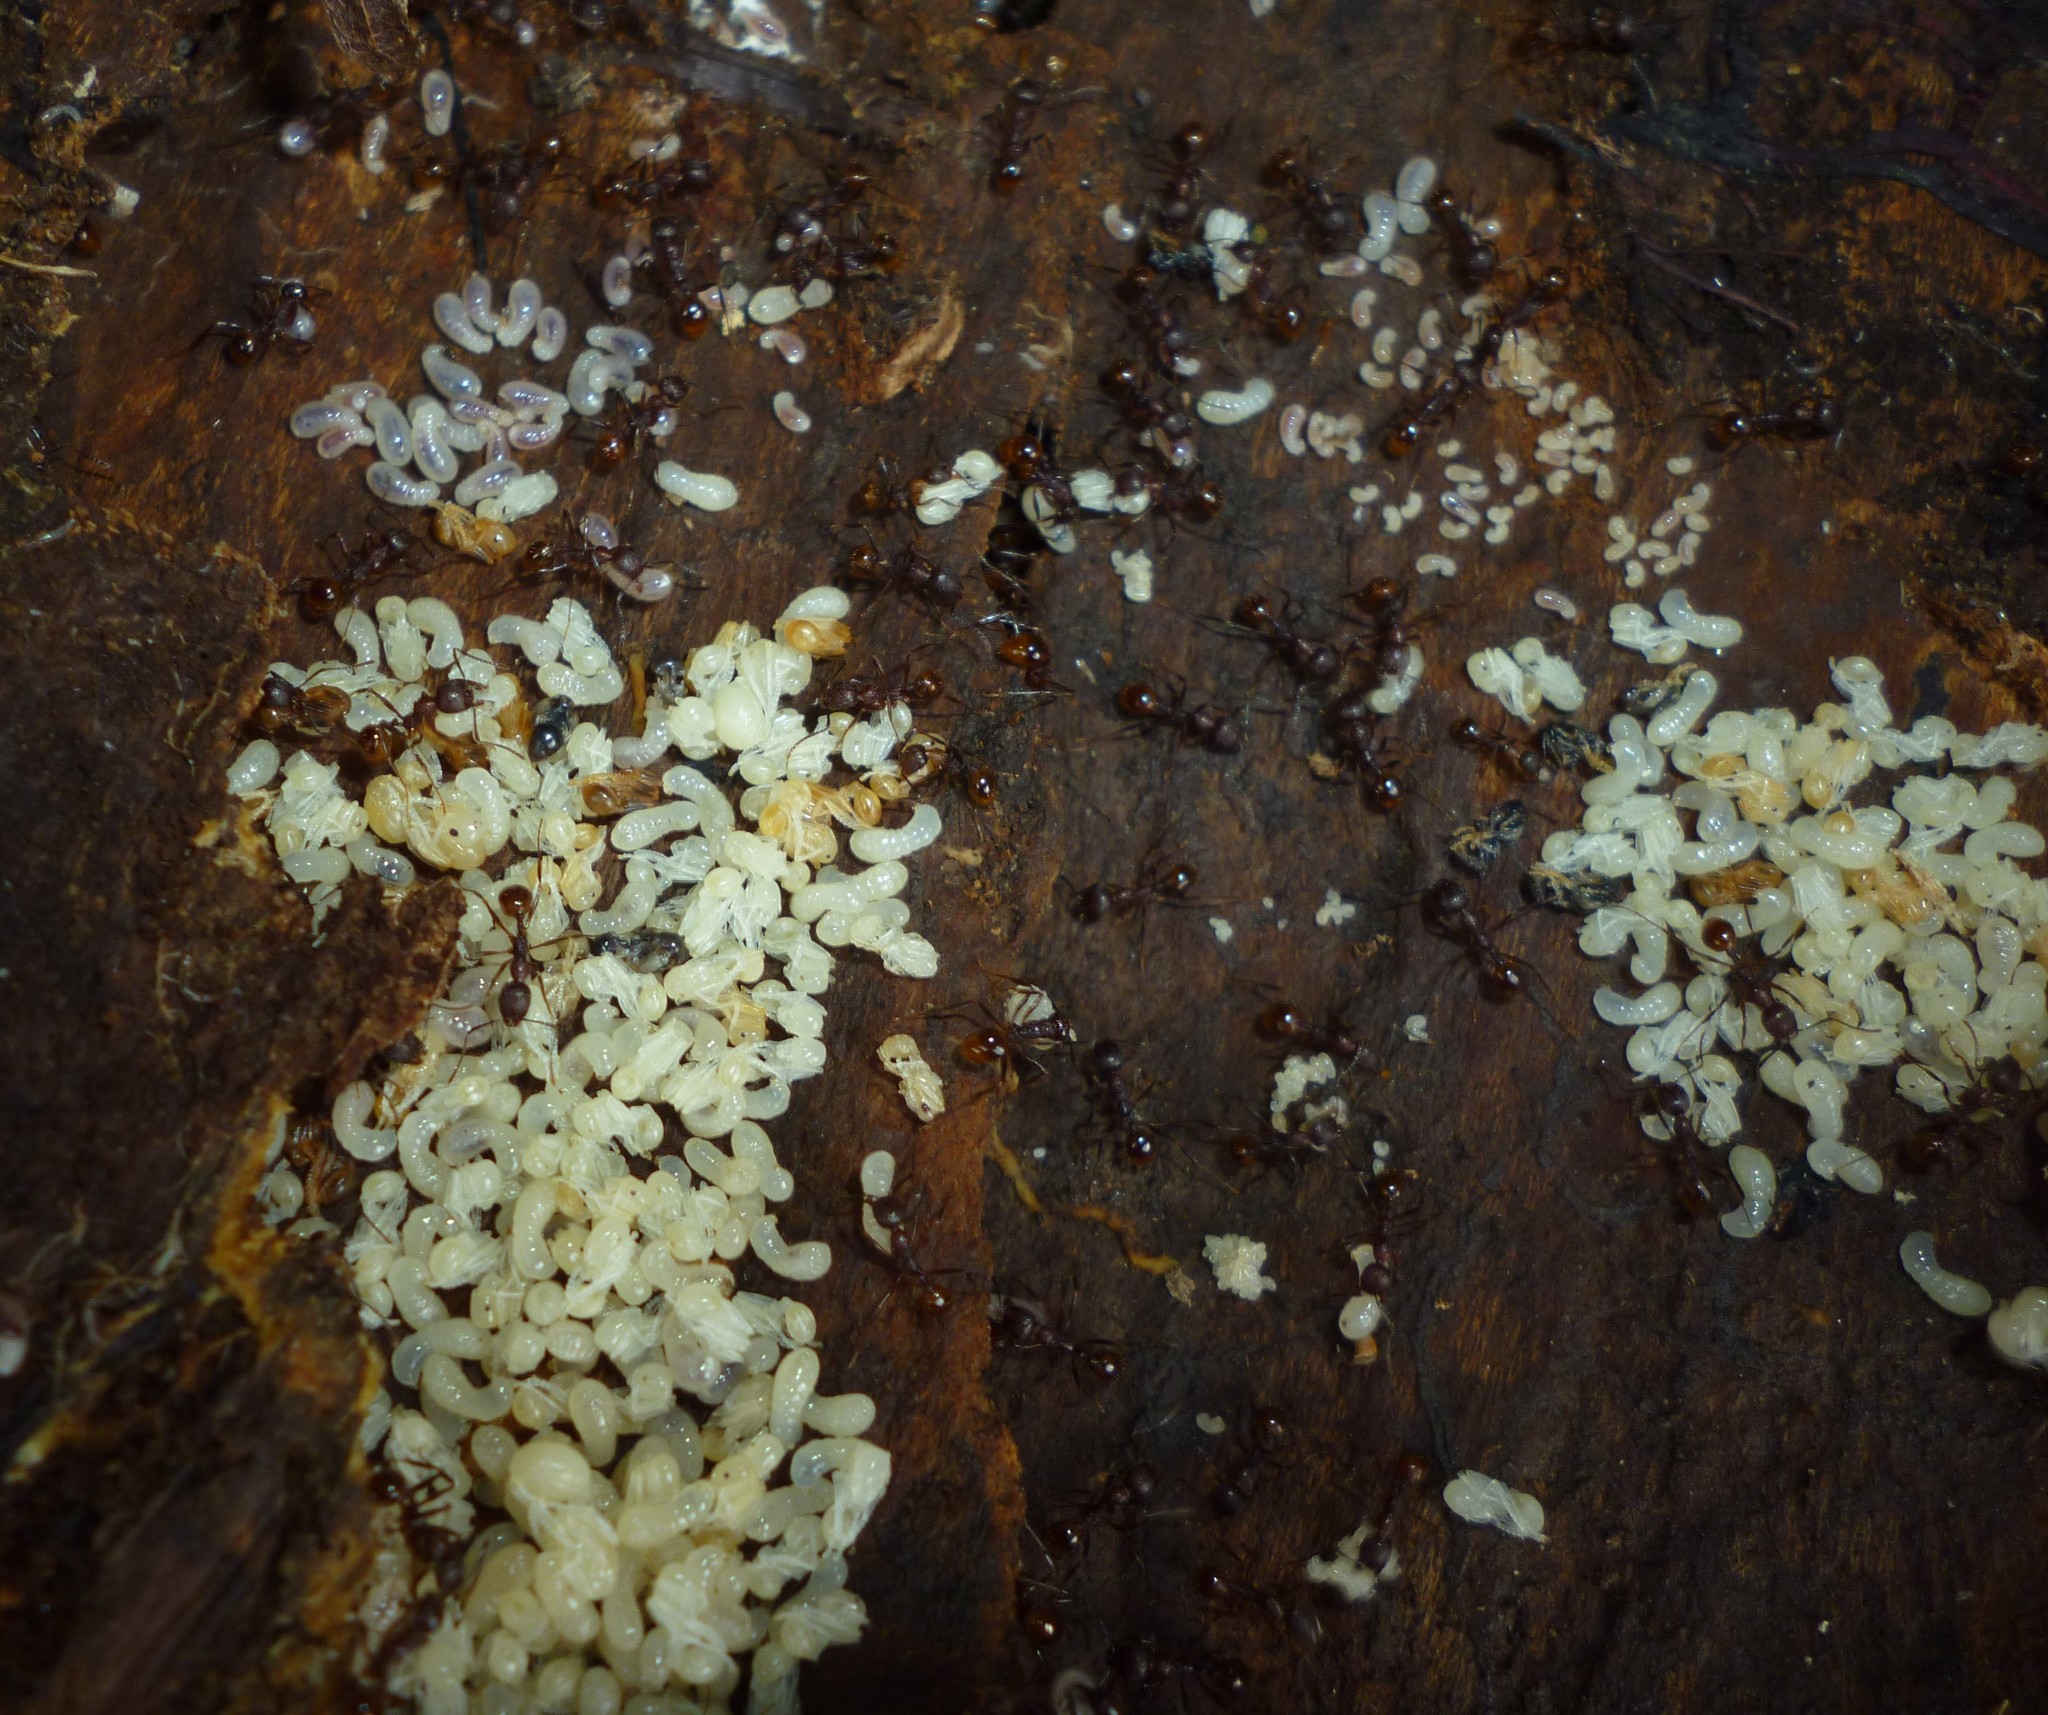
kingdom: Animalia
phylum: Arthropoda
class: Insecta
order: Hymenoptera
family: Formicidae
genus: Aphaenogaster
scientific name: Aphaenogaster fulva
